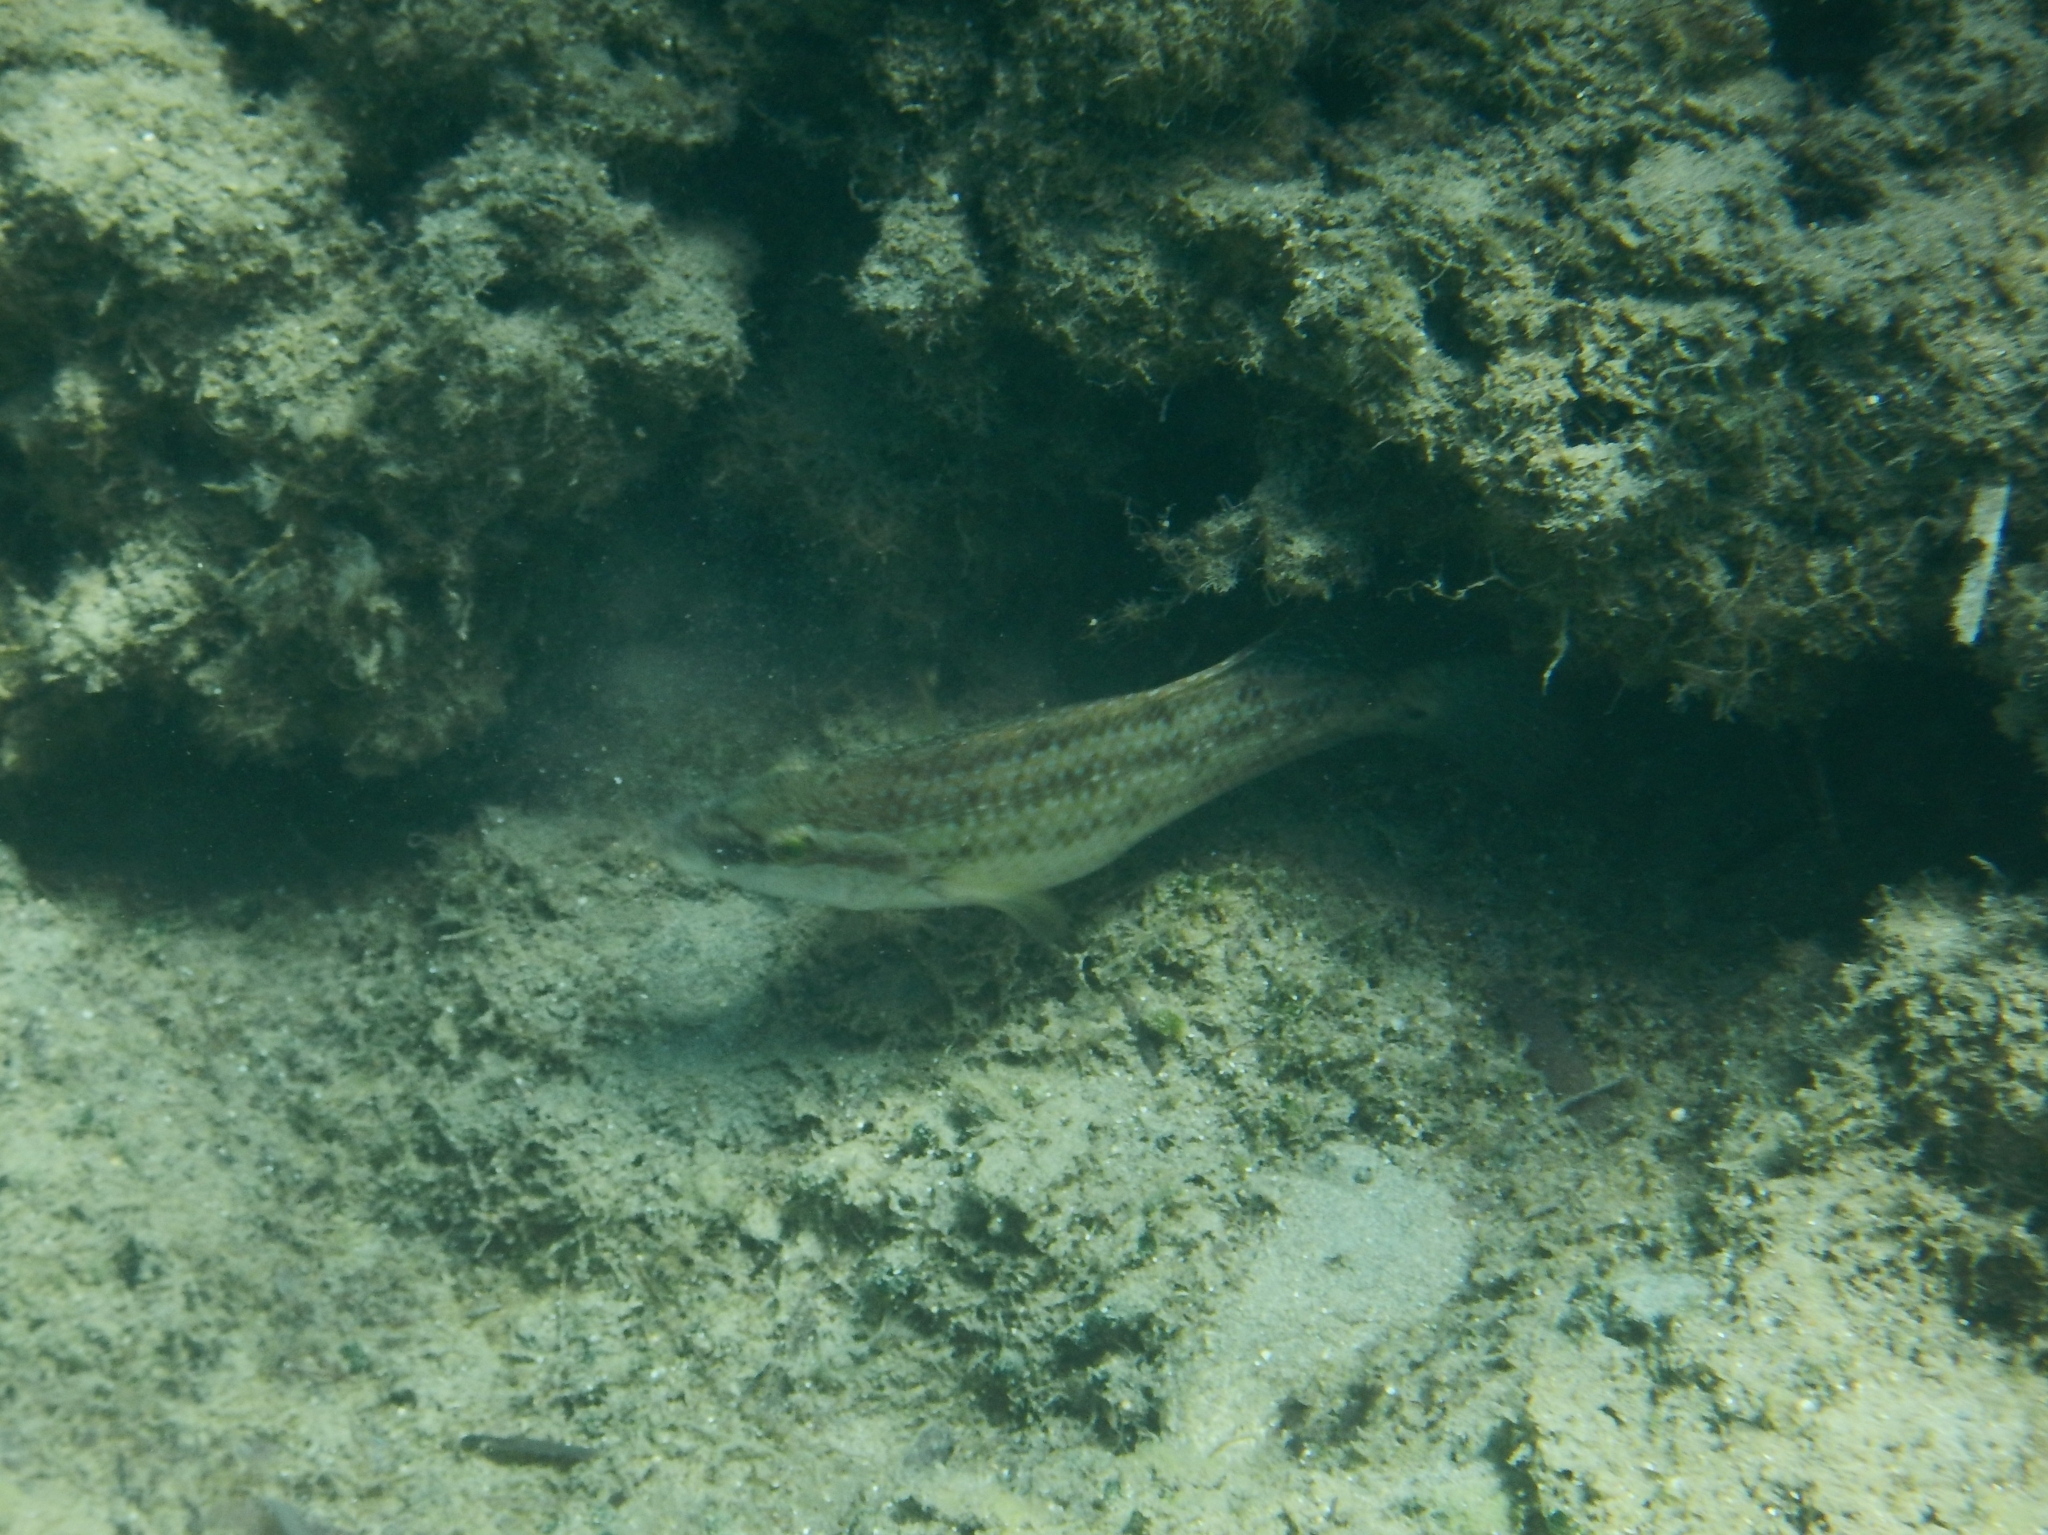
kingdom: Animalia
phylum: Chordata
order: Perciformes
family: Labridae
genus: Symphodus
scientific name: Symphodus tinca
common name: Peacock wrasse
